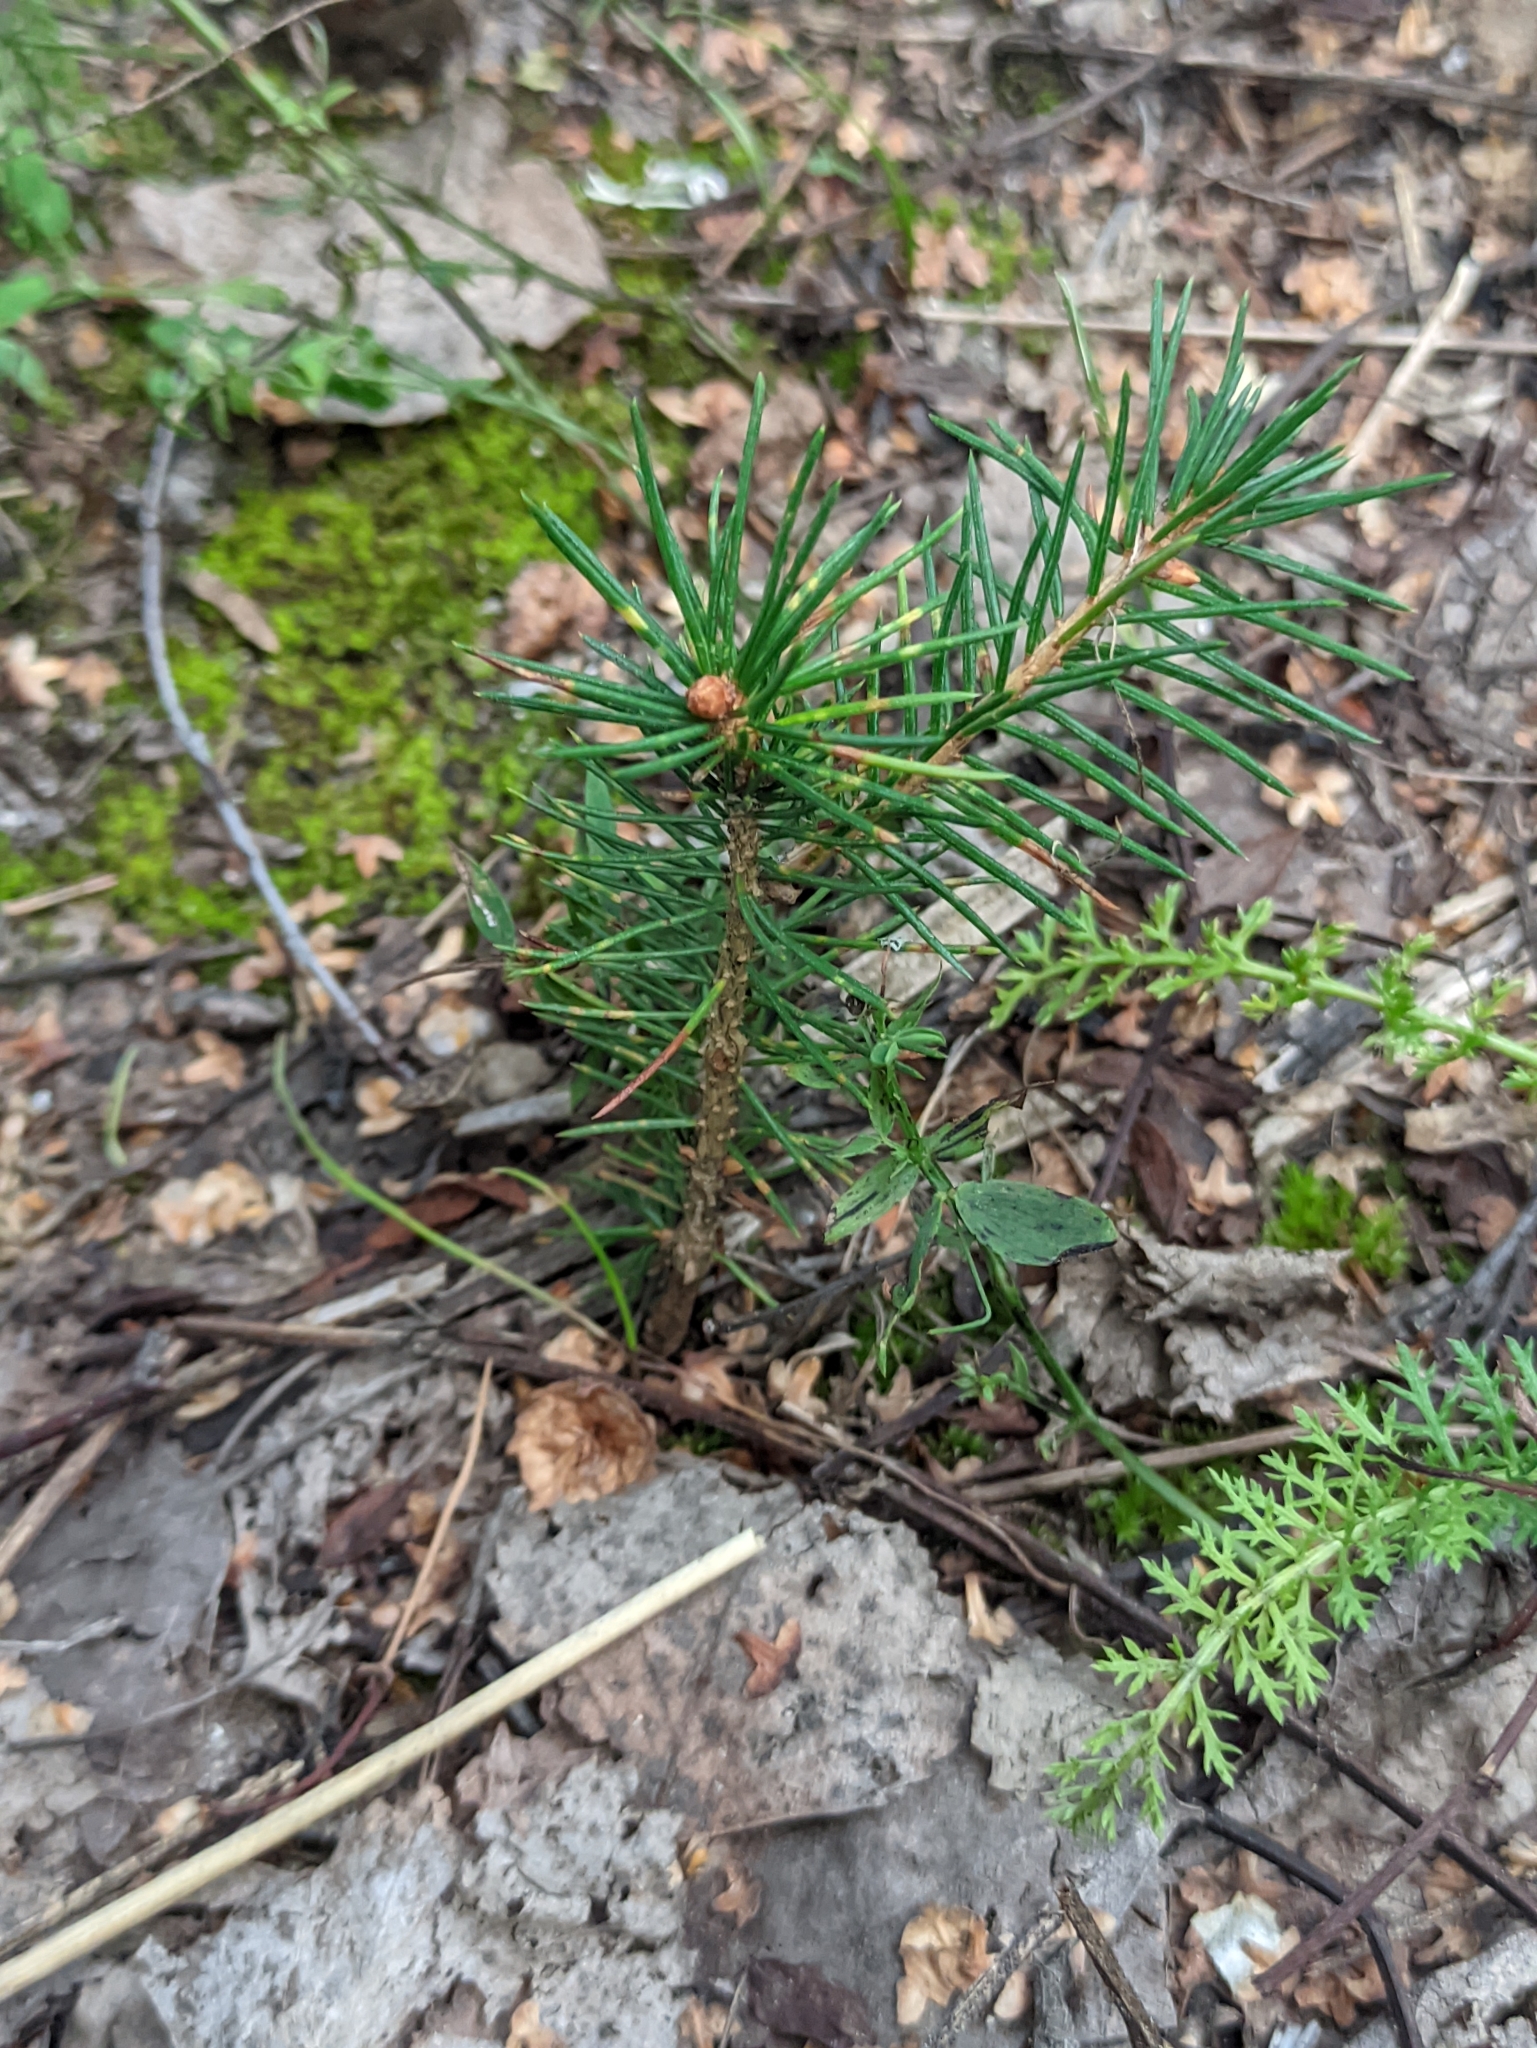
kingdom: Plantae
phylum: Tracheophyta
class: Pinopsida
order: Pinales
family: Pinaceae
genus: Pinus
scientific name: Pinus sylvestris
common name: Scots pine
